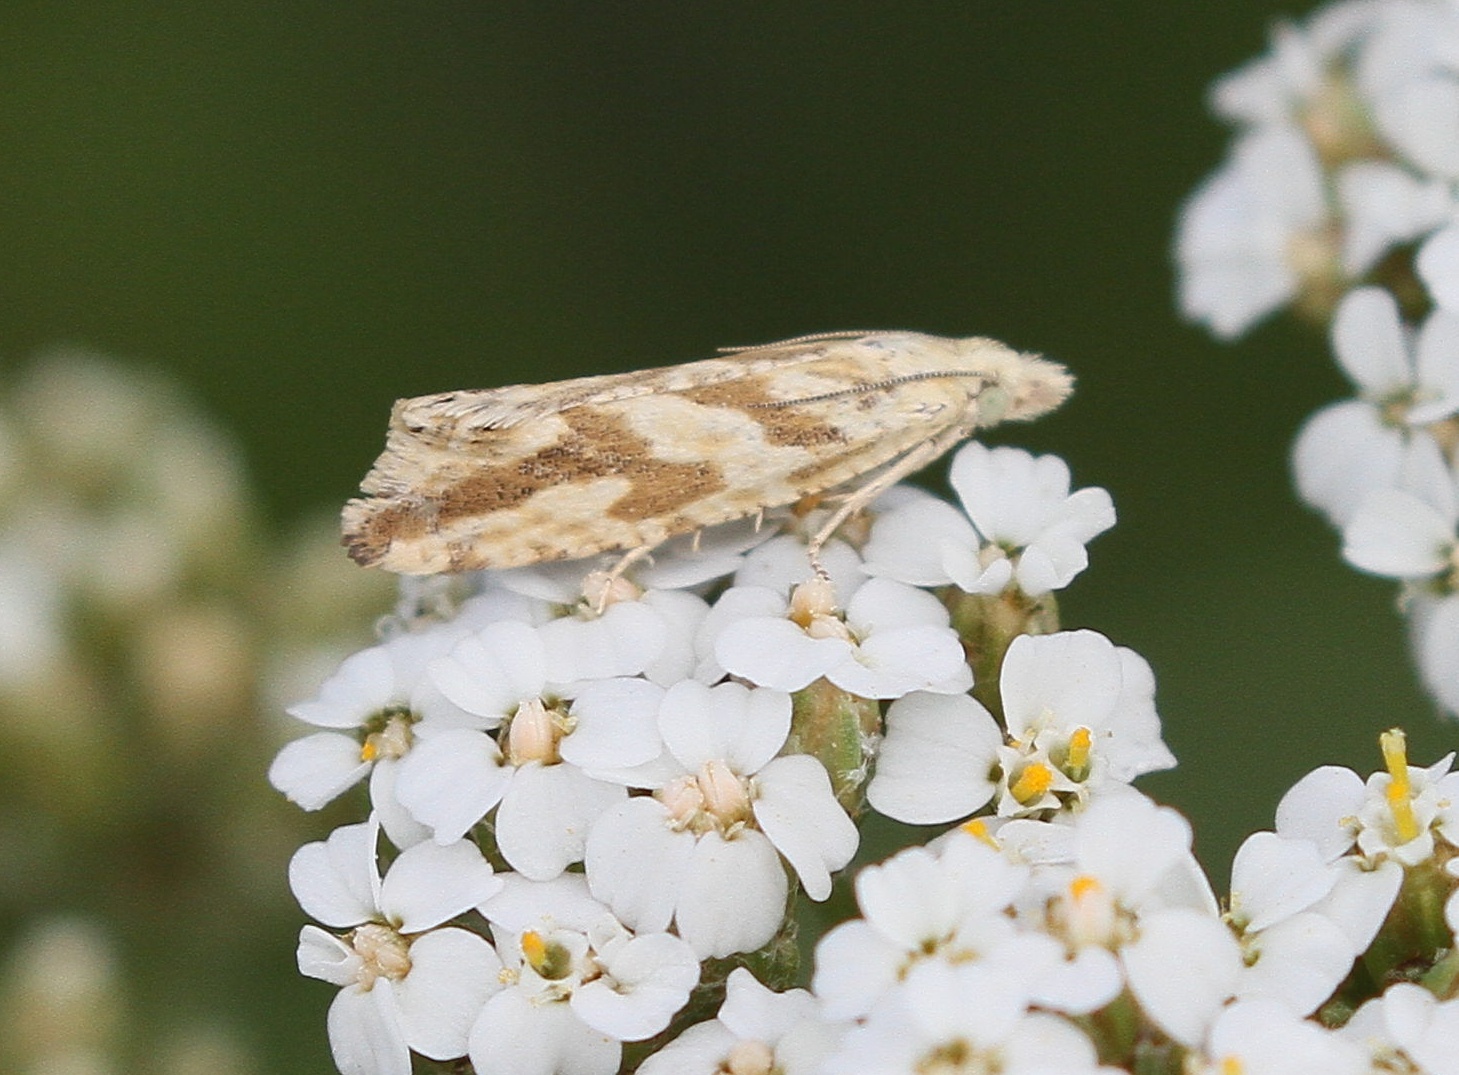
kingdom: Animalia
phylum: Arthropoda
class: Insecta
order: Lepidoptera
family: Tortricidae
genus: Thiodia
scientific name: Thiodia citrana
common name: Lemon bell
